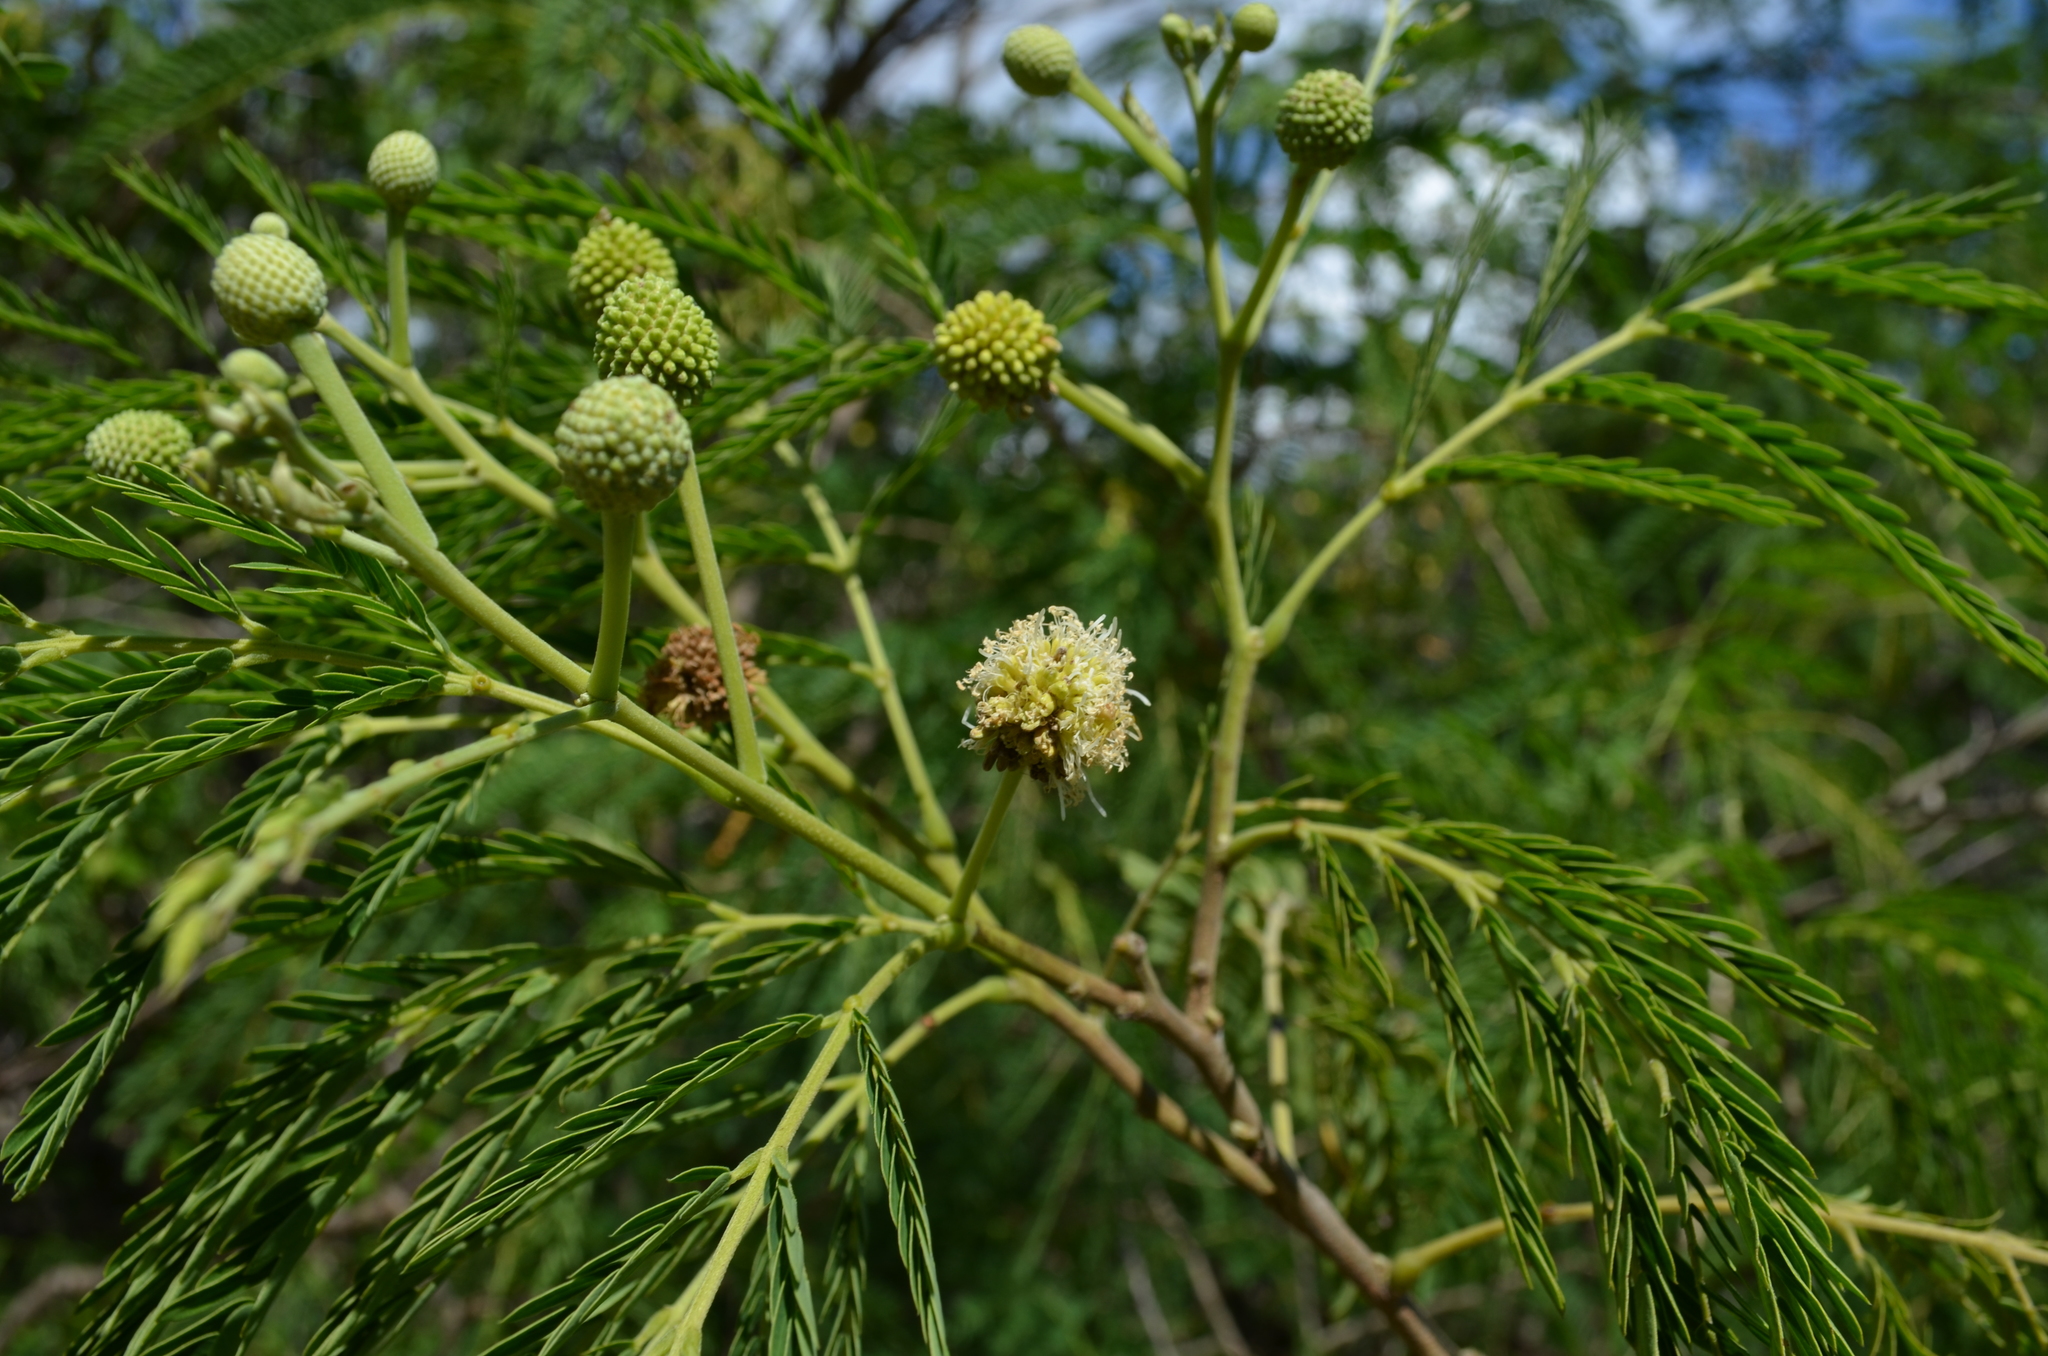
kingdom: Plantae
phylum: Tracheophyta
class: Magnoliopsida
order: Fabales
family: Fabaceae
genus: Leucaena
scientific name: Leucaena leucocephala
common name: White leadtree
